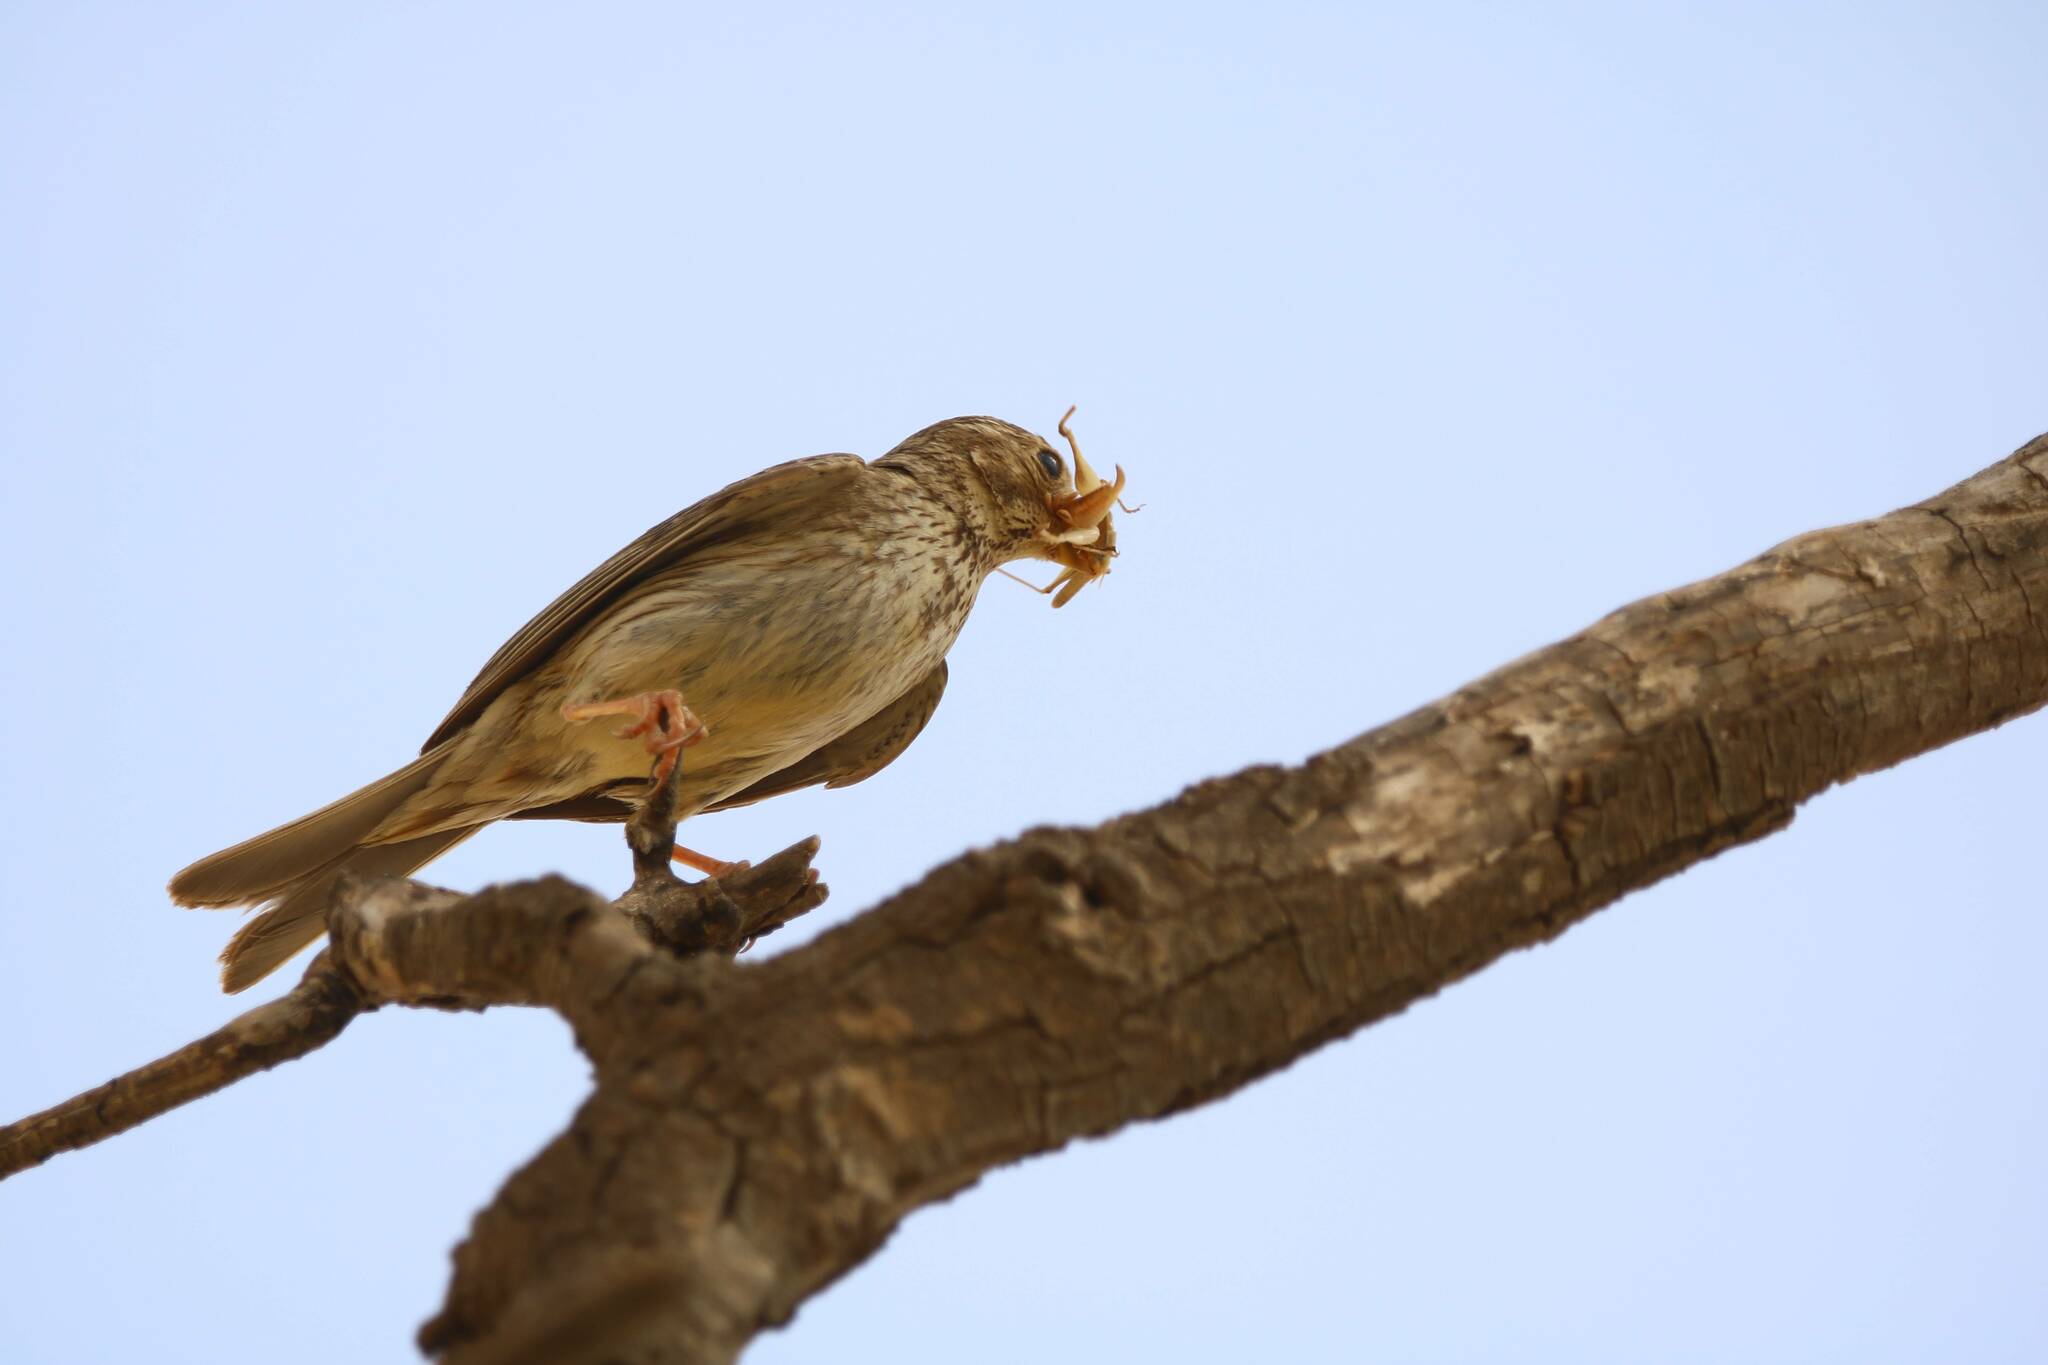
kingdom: Animalia
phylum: Chordata
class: Aves
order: Passeriformes
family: Emberizidae
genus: Emberiza
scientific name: Emberiza calandra
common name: Corn bunting
